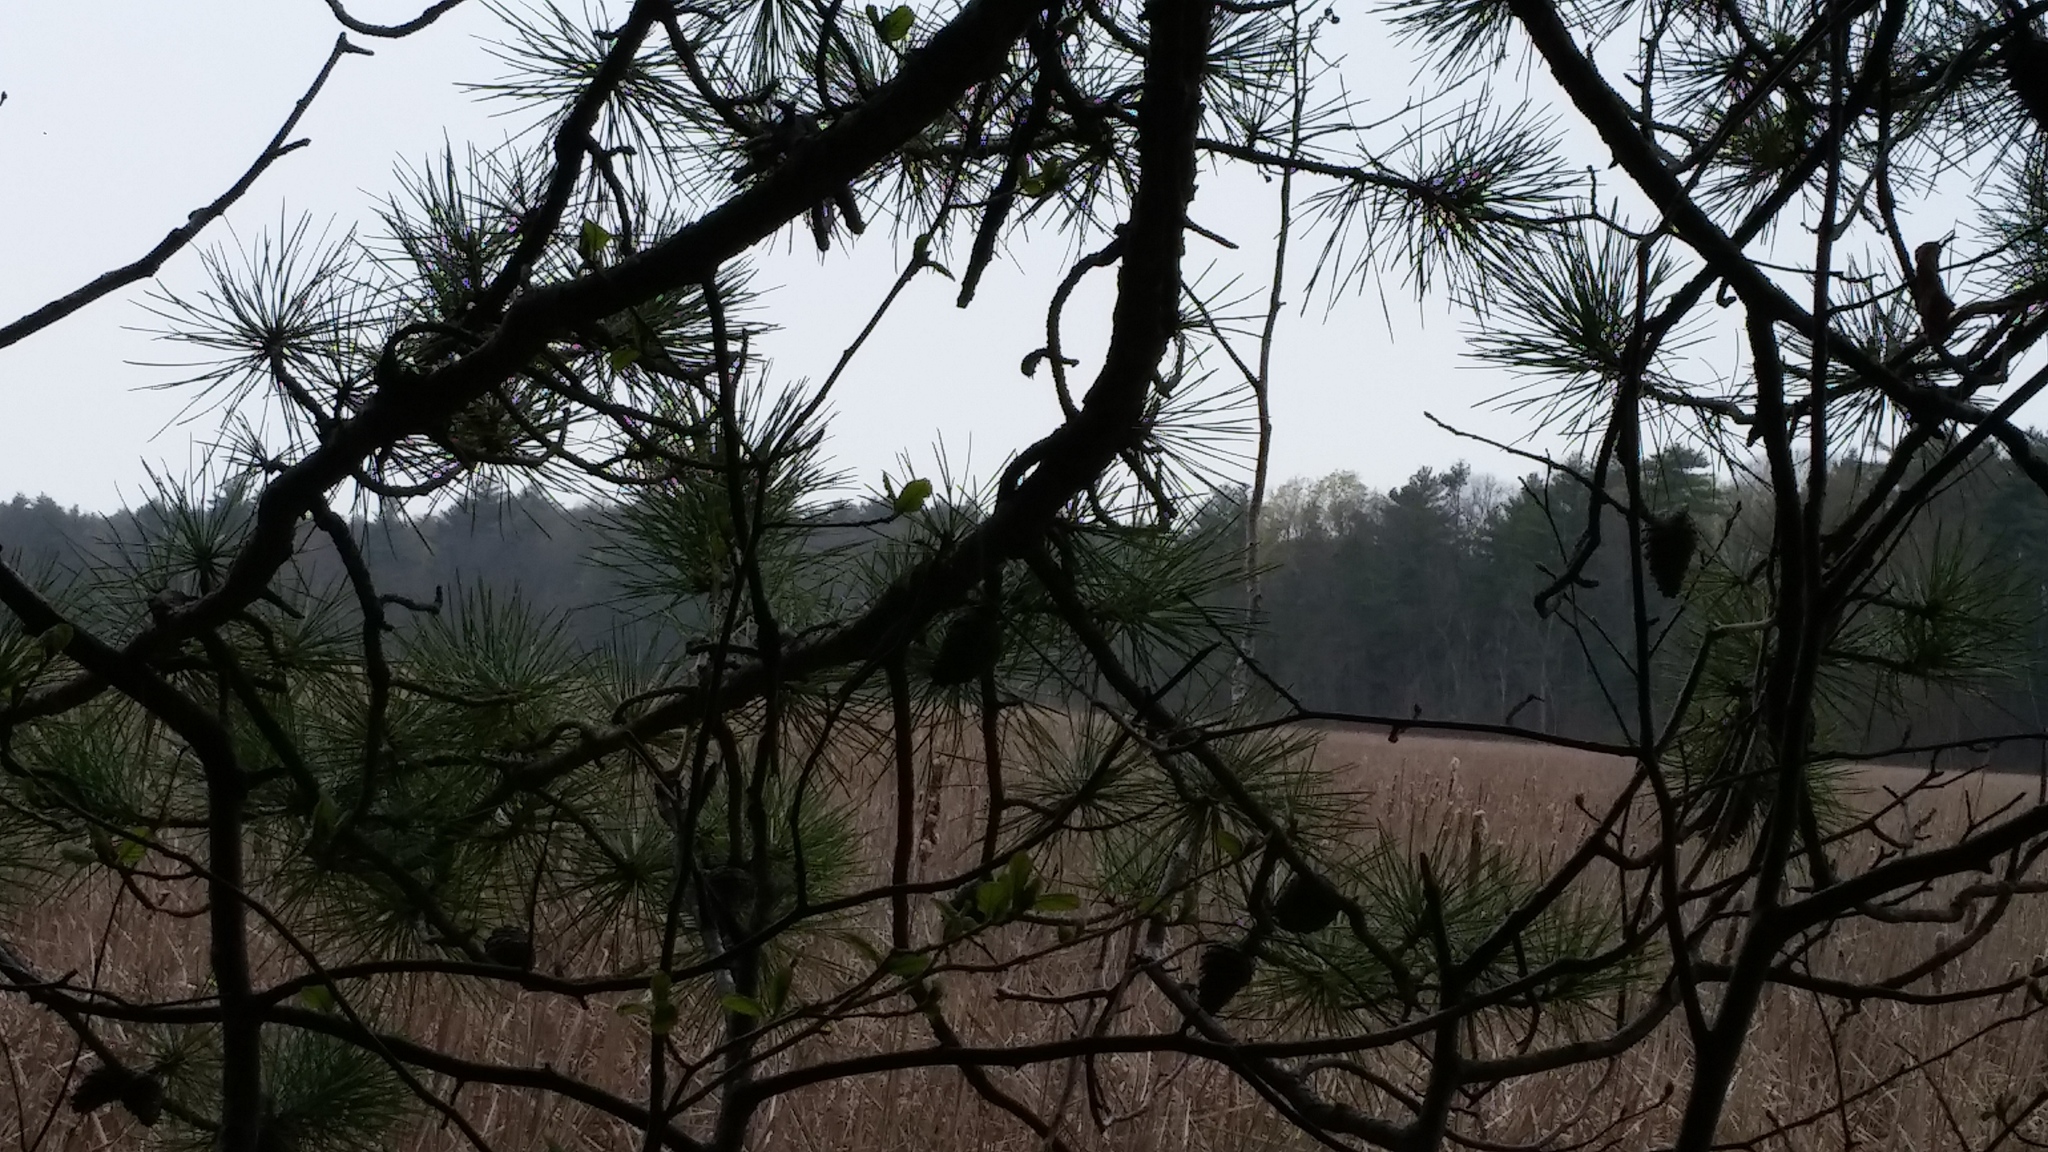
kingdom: Plantae
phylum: Tracheophyta
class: Pinopsida
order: Pinales
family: Pinaceae
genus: Pinus
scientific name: Pinus rigida
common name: Pitch pine
